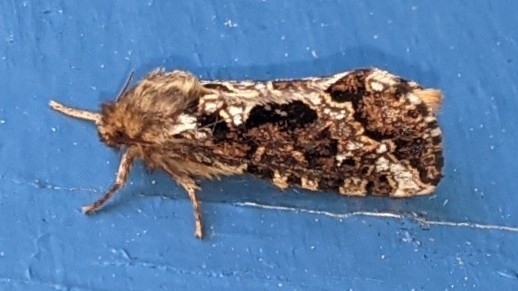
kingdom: Animalia
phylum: Arthropoda
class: Insecta
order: Lepidoptera
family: Hepialidae
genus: Korscheltellus
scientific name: Korscheltellus gracilis
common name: Conifer swift moth
